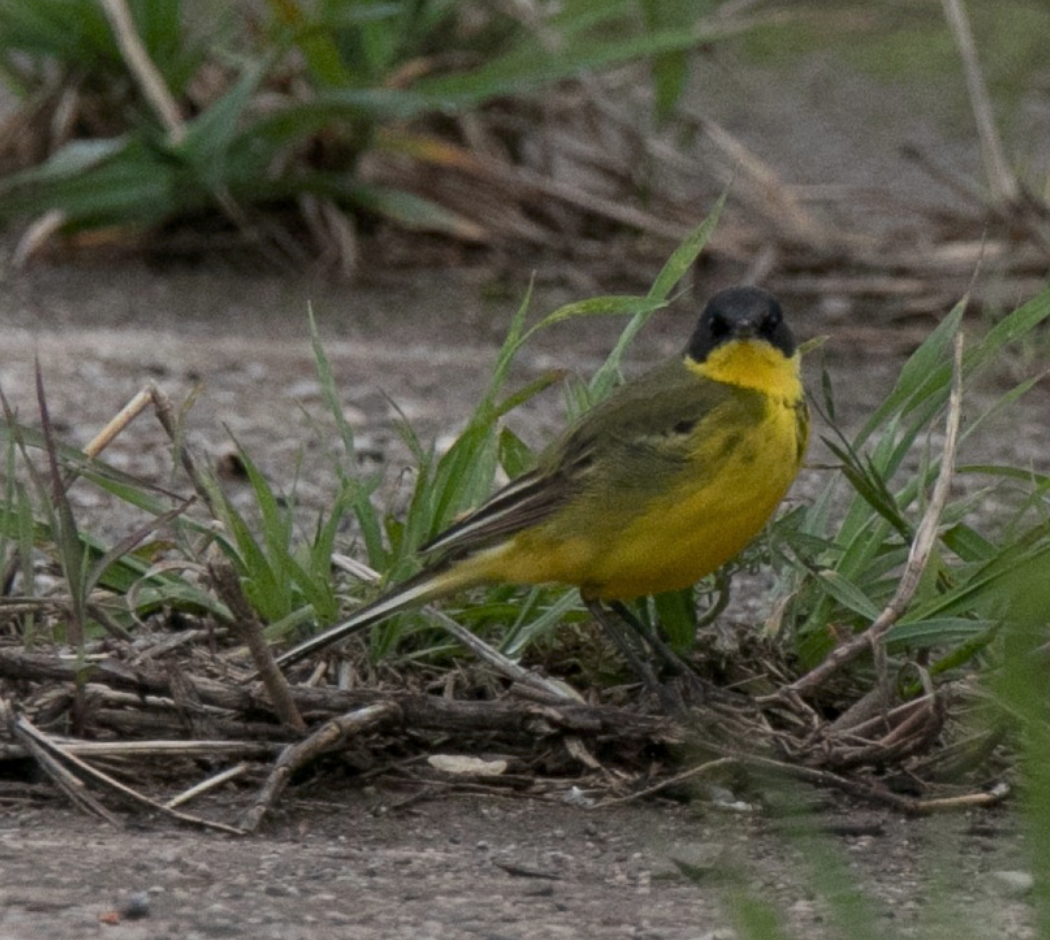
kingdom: Animalia
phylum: Chordata
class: Aves
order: Passeriformes
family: Motacillidae
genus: Motacilla
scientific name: Motacilla flava
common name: Western yellow wagtail
